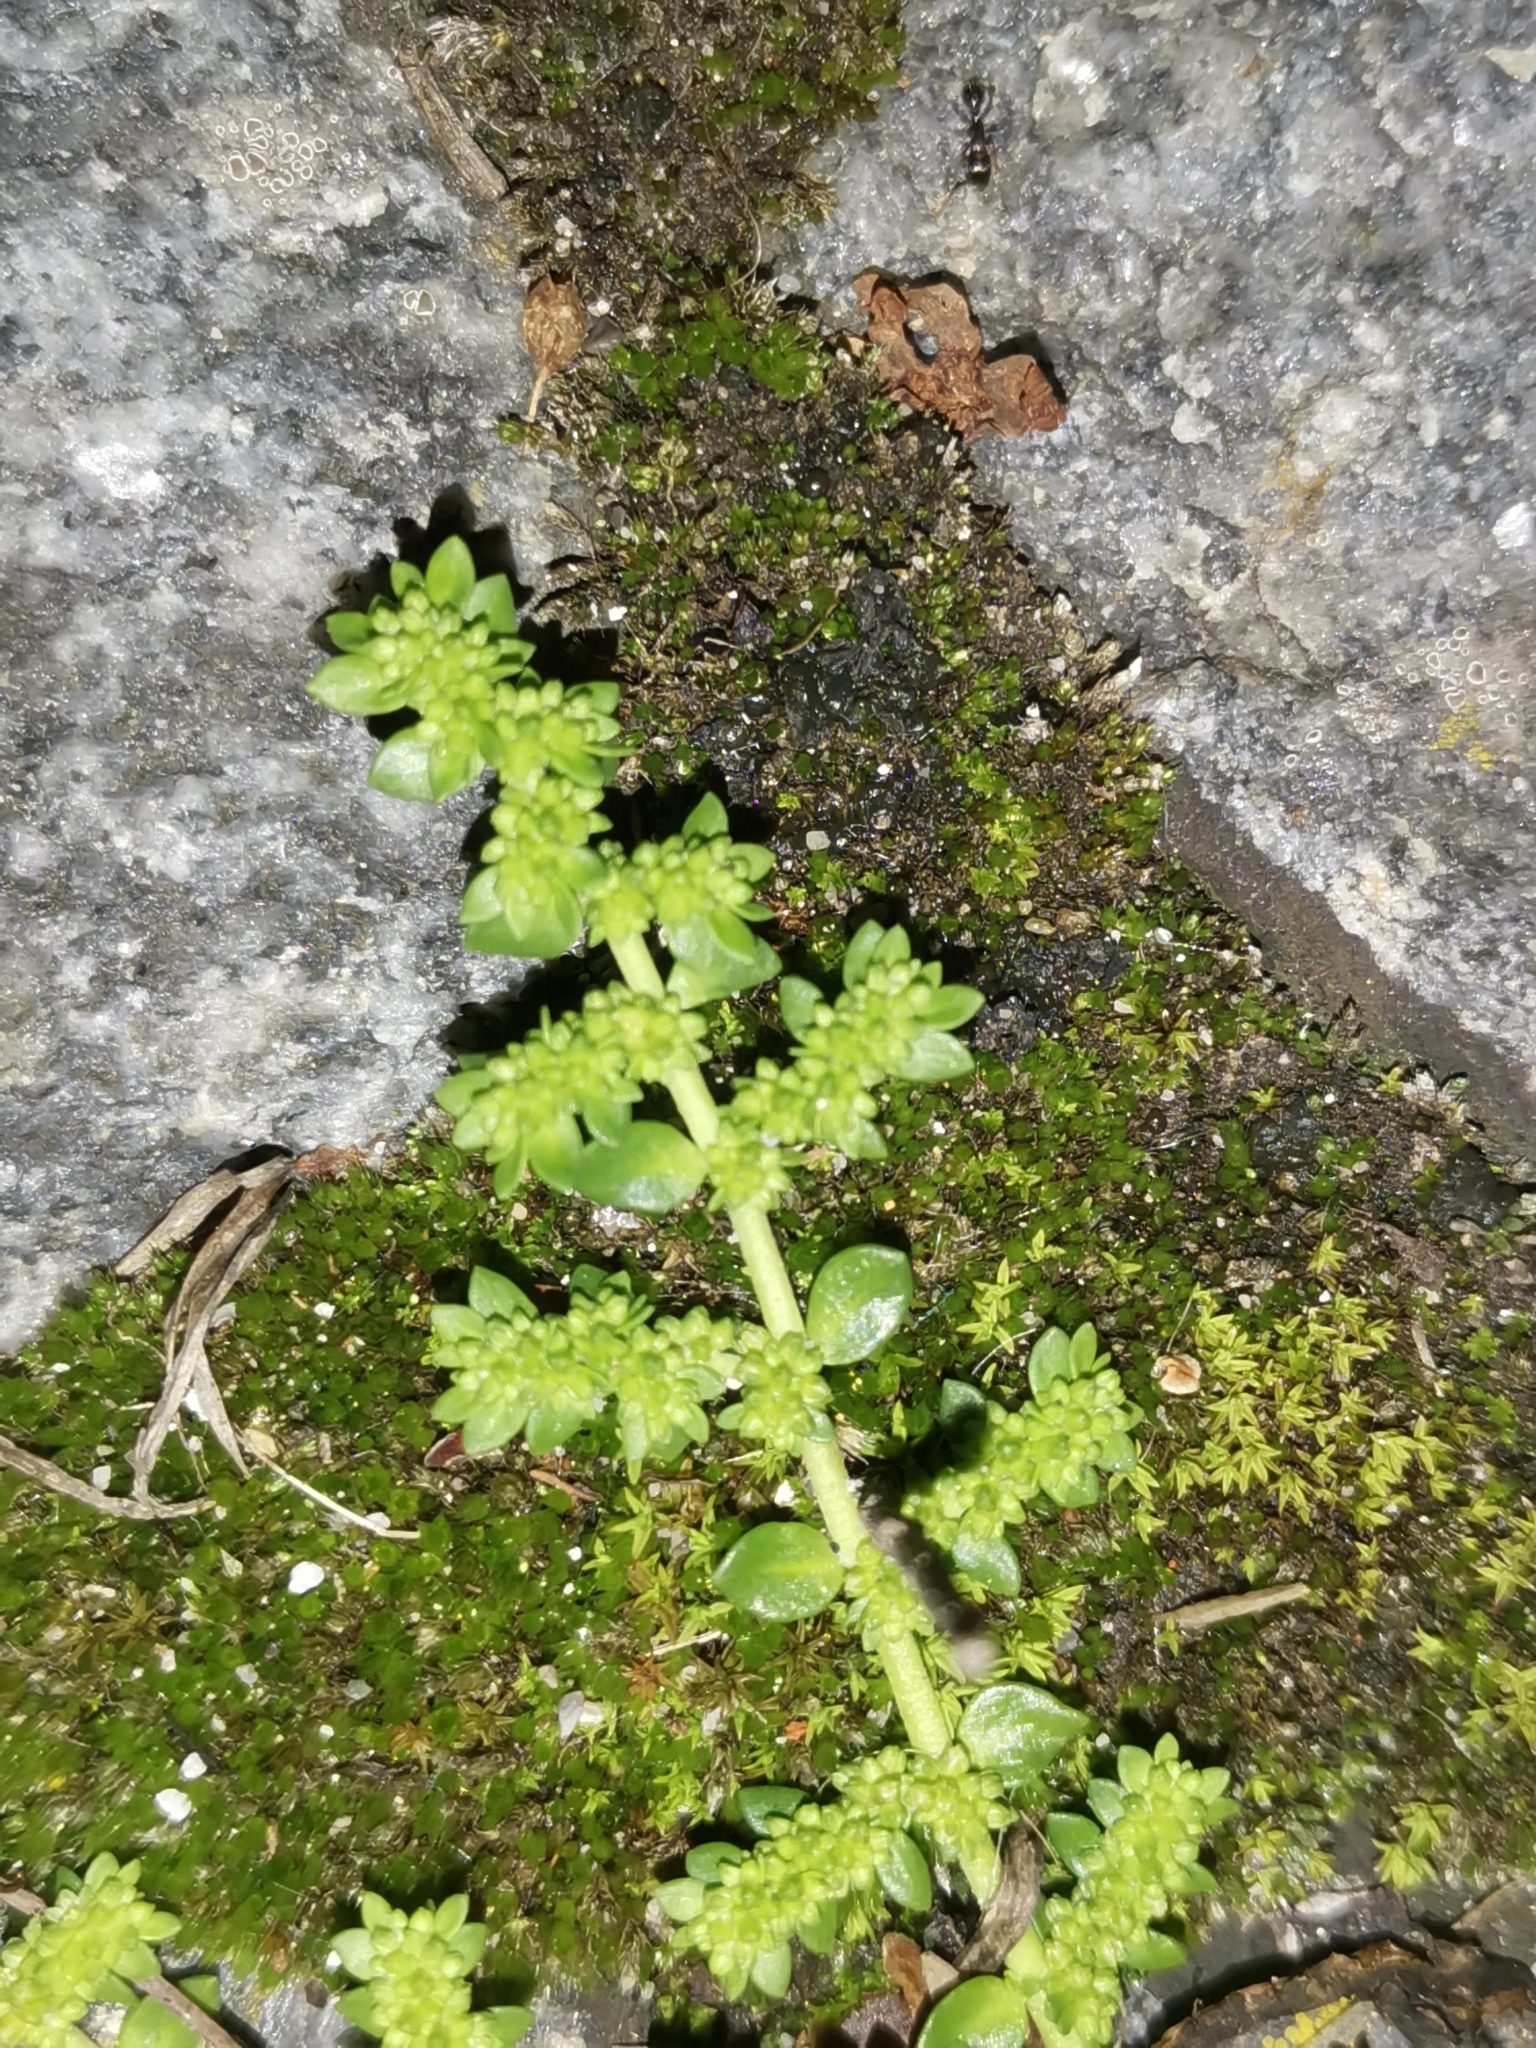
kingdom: Plantae
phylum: Tracheophyta
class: Magnoliopsida
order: Caryophyllales
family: Caryophyllaceae
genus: Herniaria
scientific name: Herniaria glabra
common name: Smooth rupturewort
